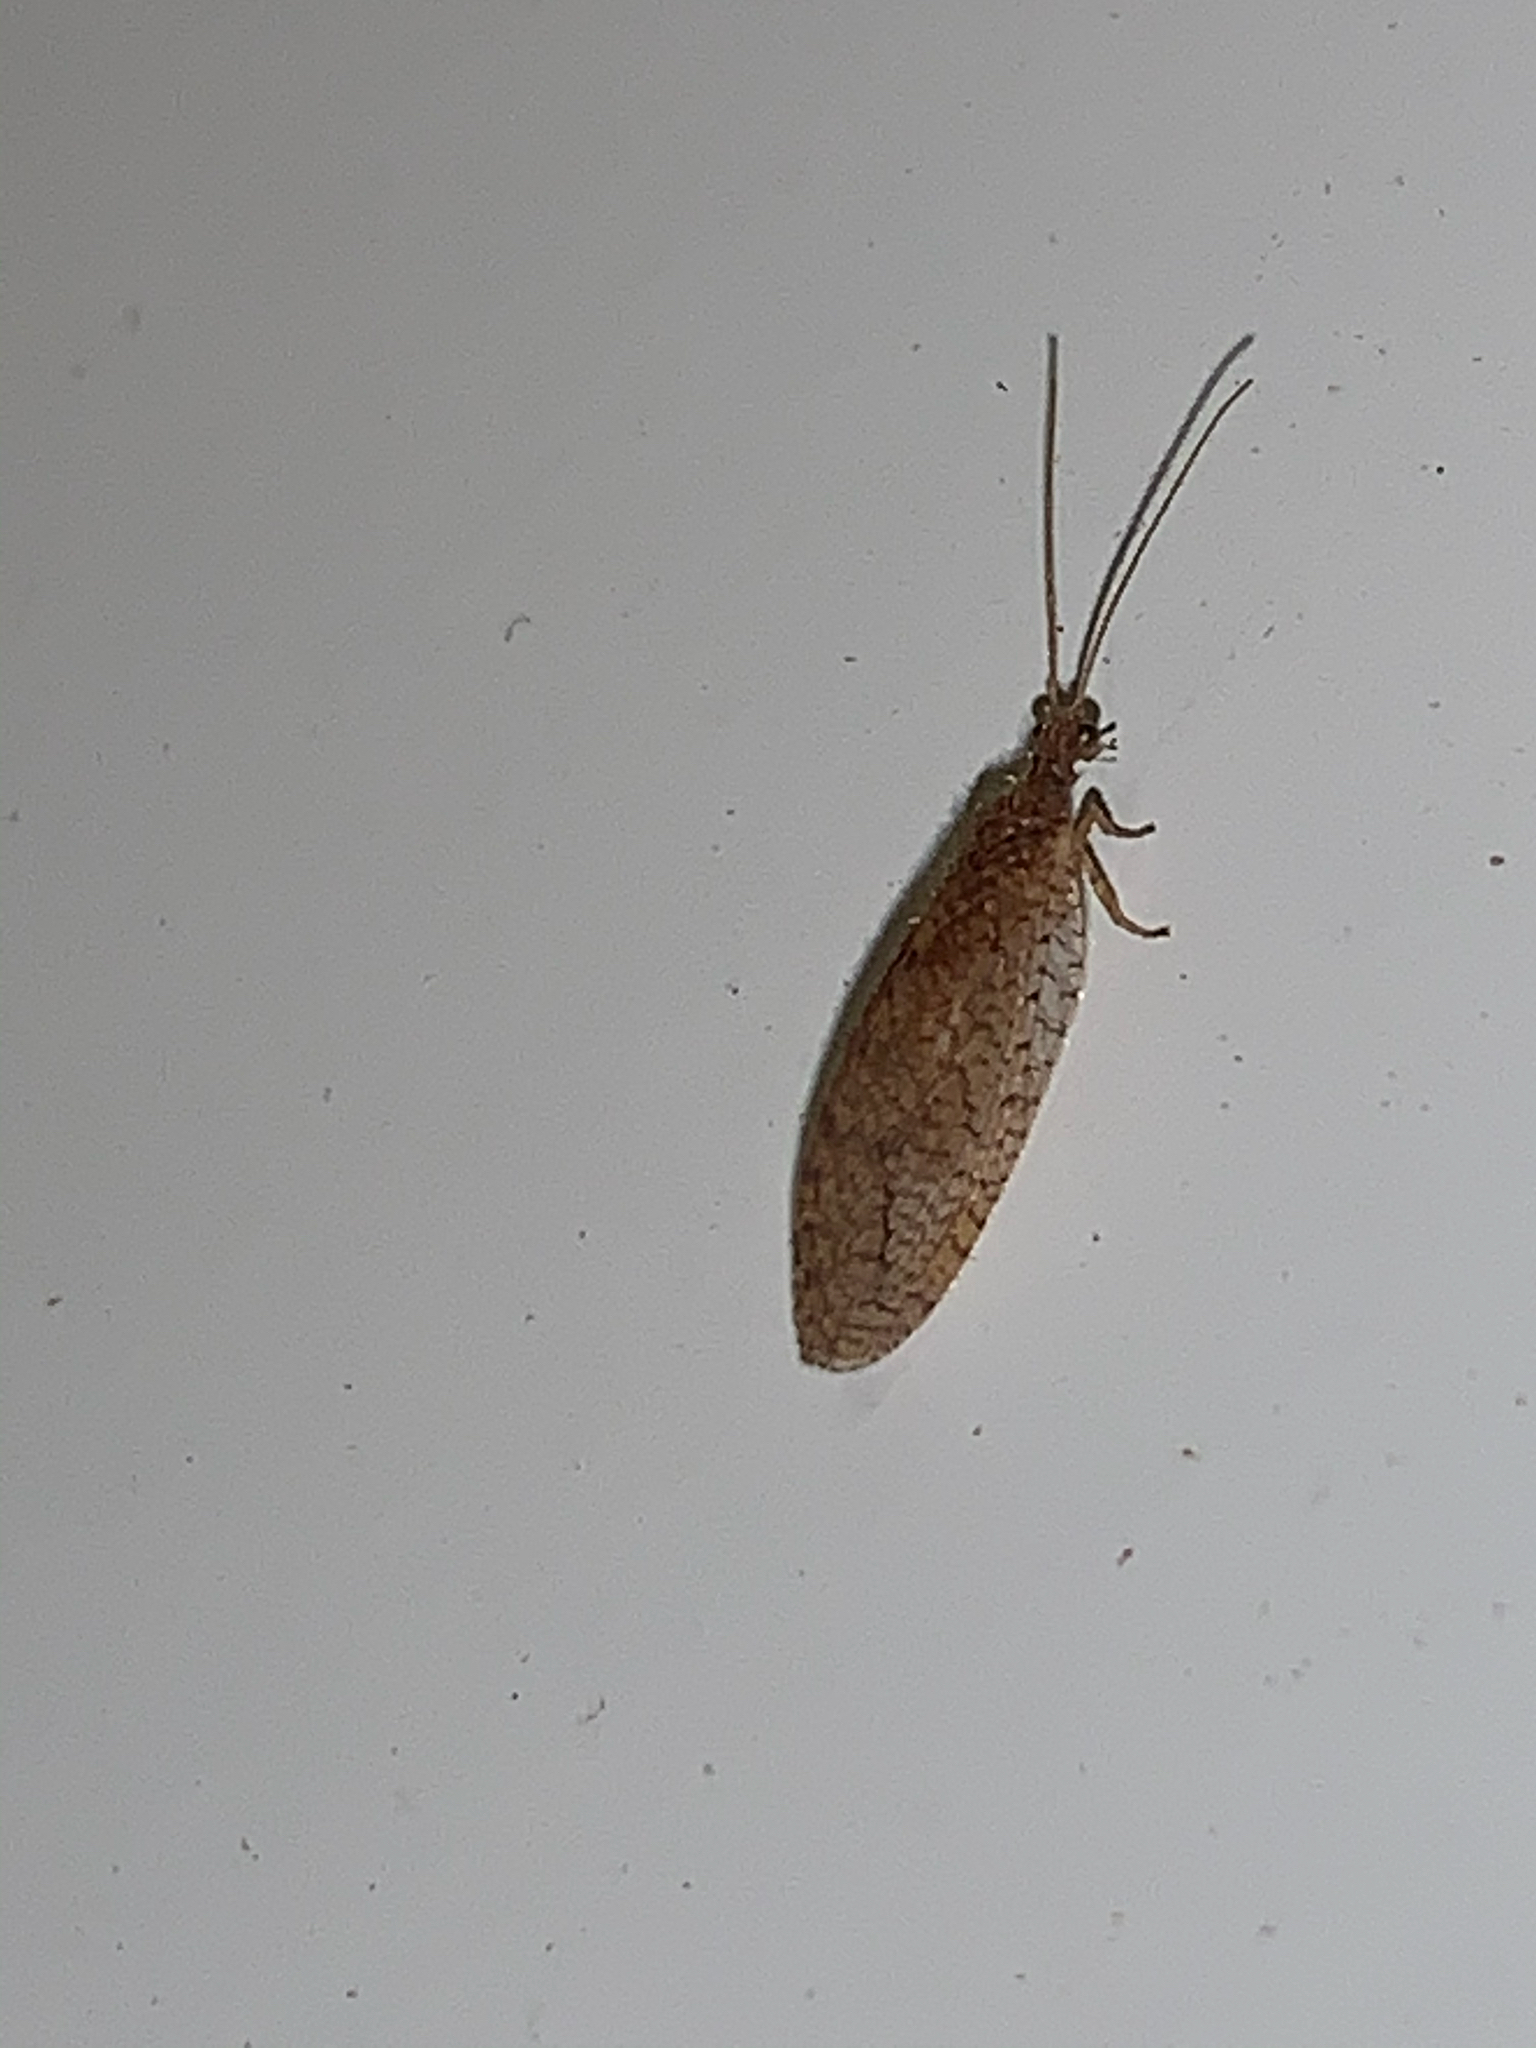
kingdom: Animalia
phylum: Arthropoda
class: Insecta
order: Neuroptera
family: Hemerobiidae
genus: Micromus
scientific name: Micromus posticus
